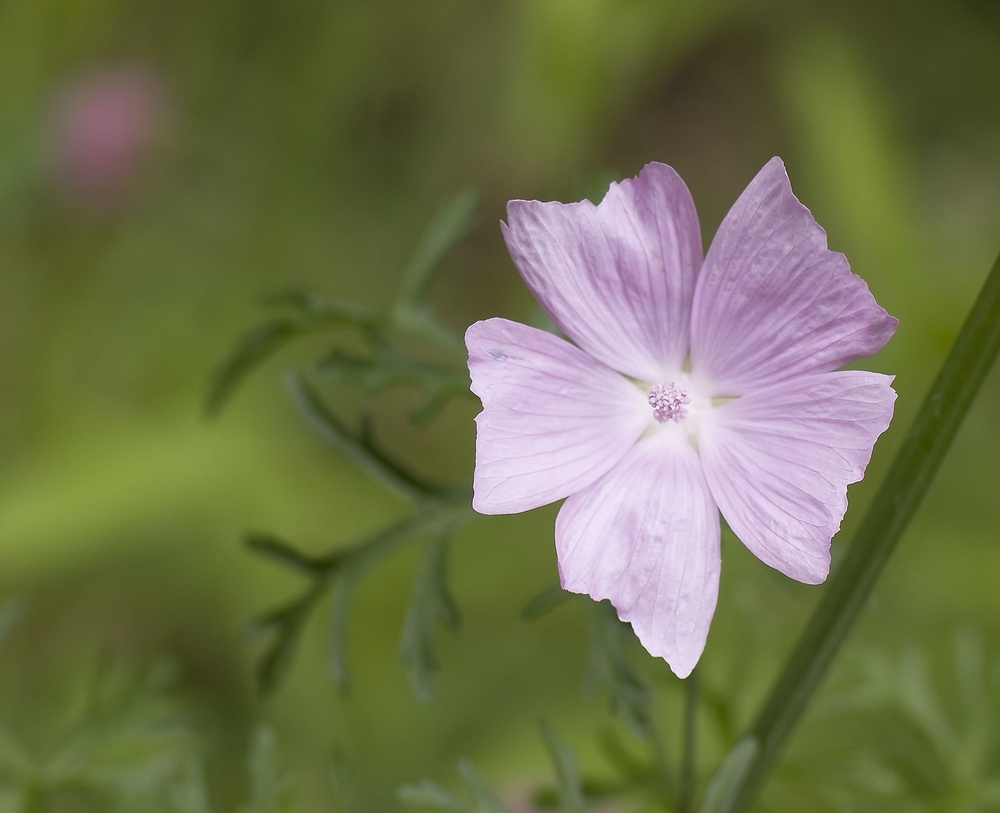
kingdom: Plantae
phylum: Tracheophyta
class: Magnoliopsida
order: Malvales
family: Malvaceae
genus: Malva
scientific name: Malva moschata
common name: Musk mallow
